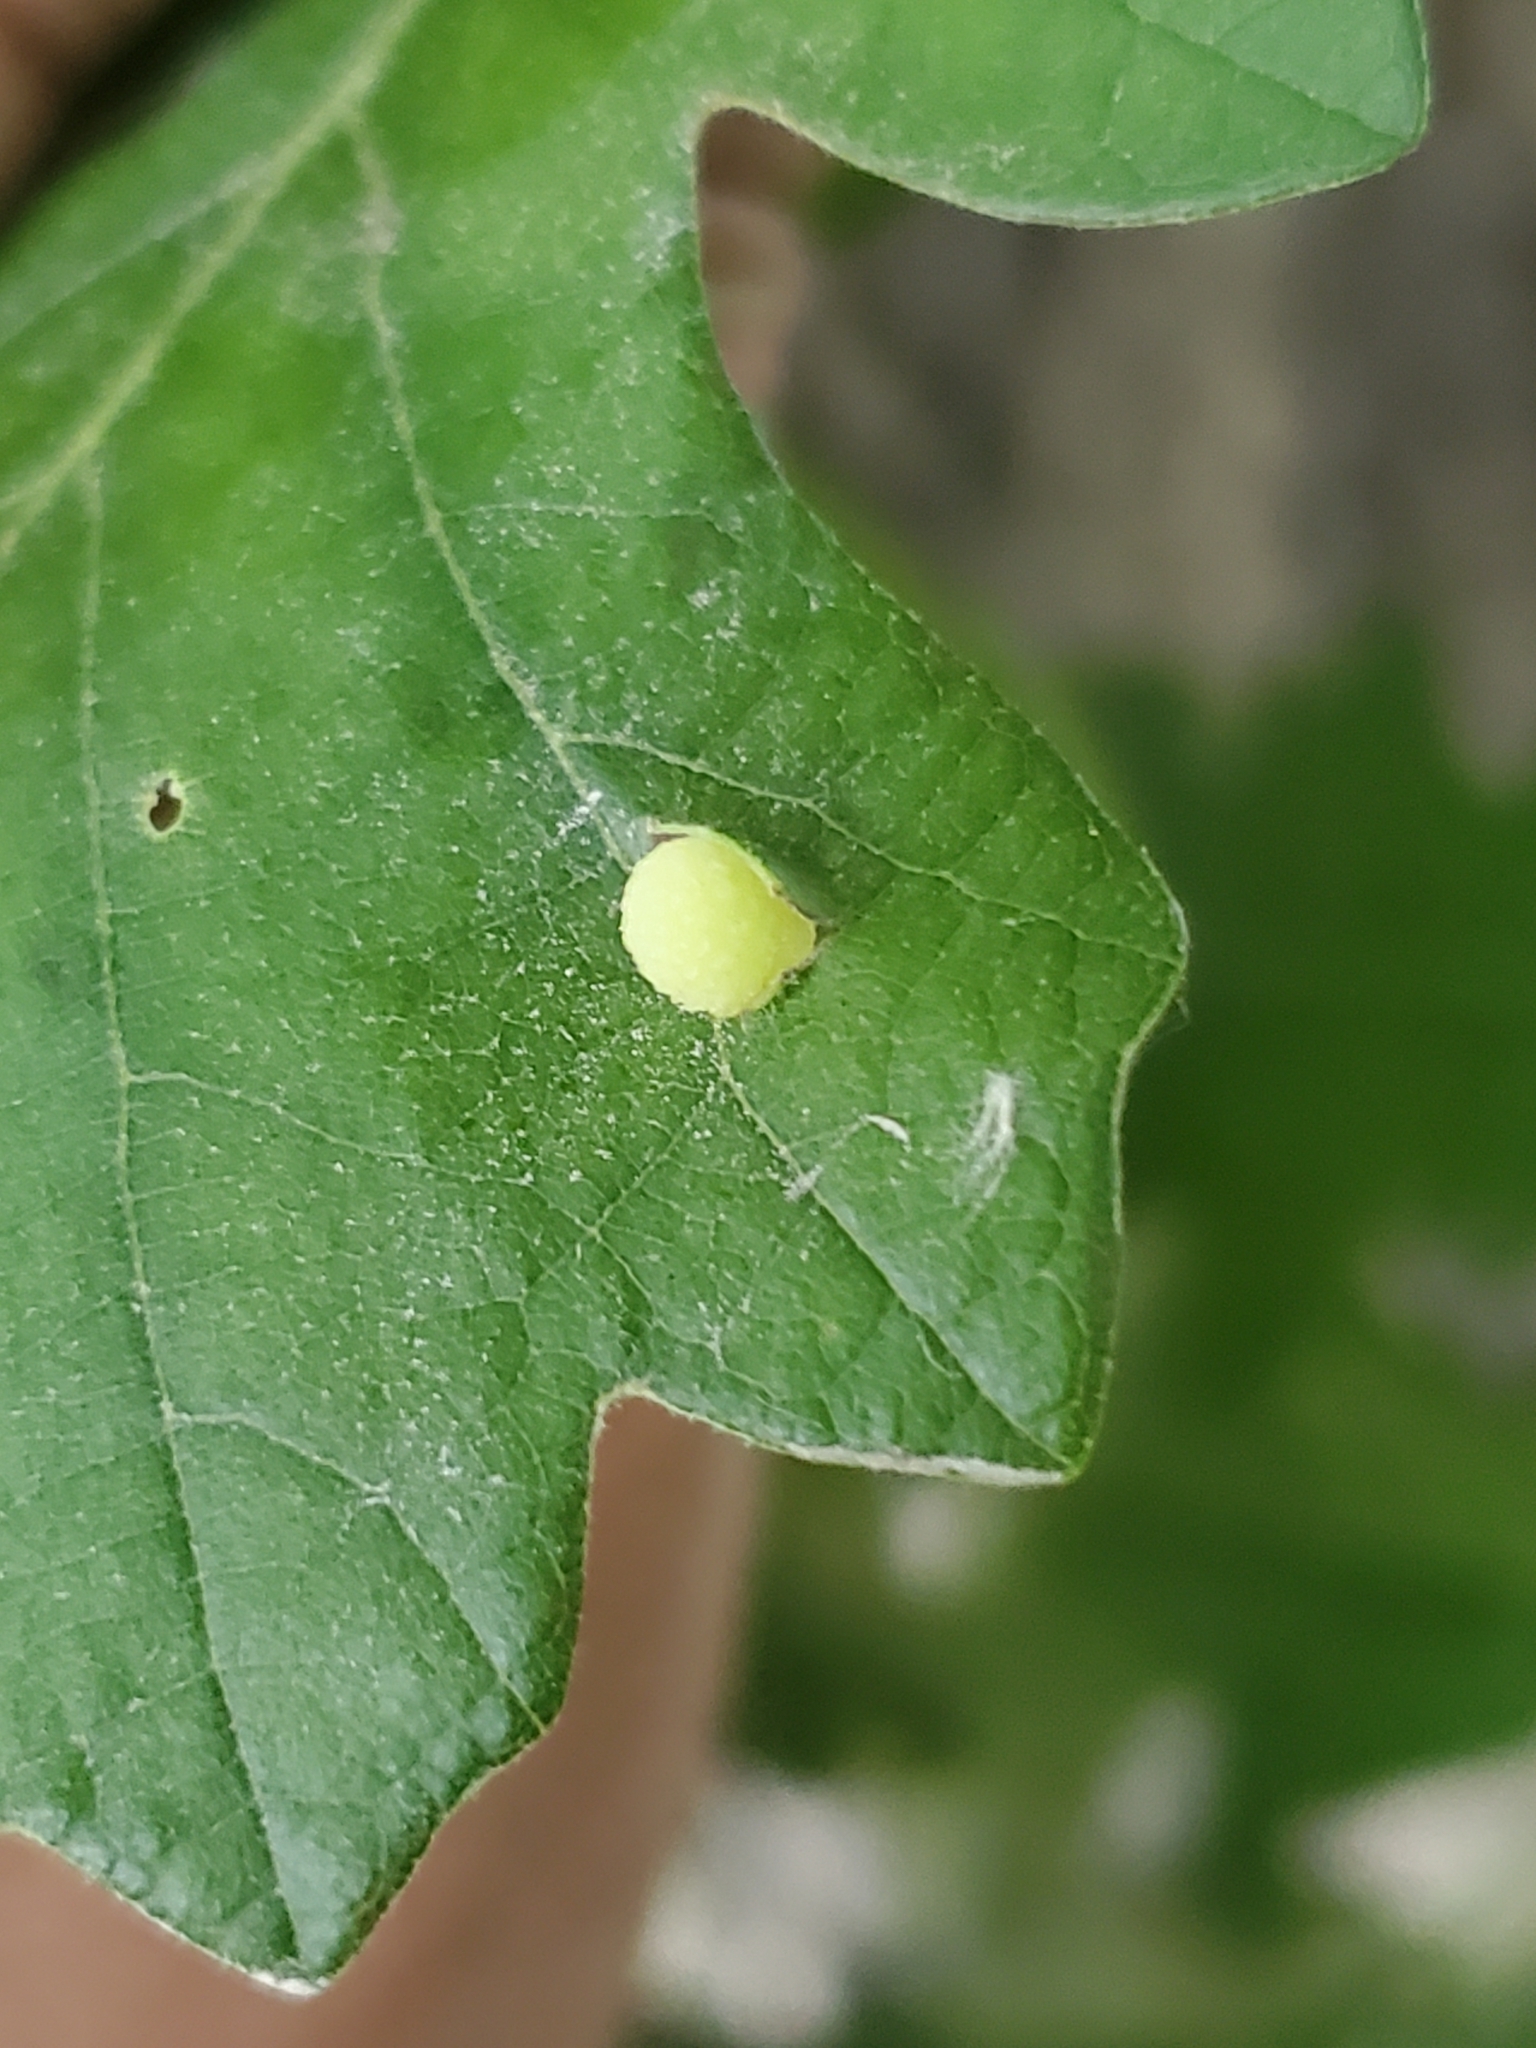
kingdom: Animalia
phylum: Arthropoda
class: Insecta
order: Hymenoptera
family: Cynipidae
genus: Acraspis
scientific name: Acraspis quercushirta
